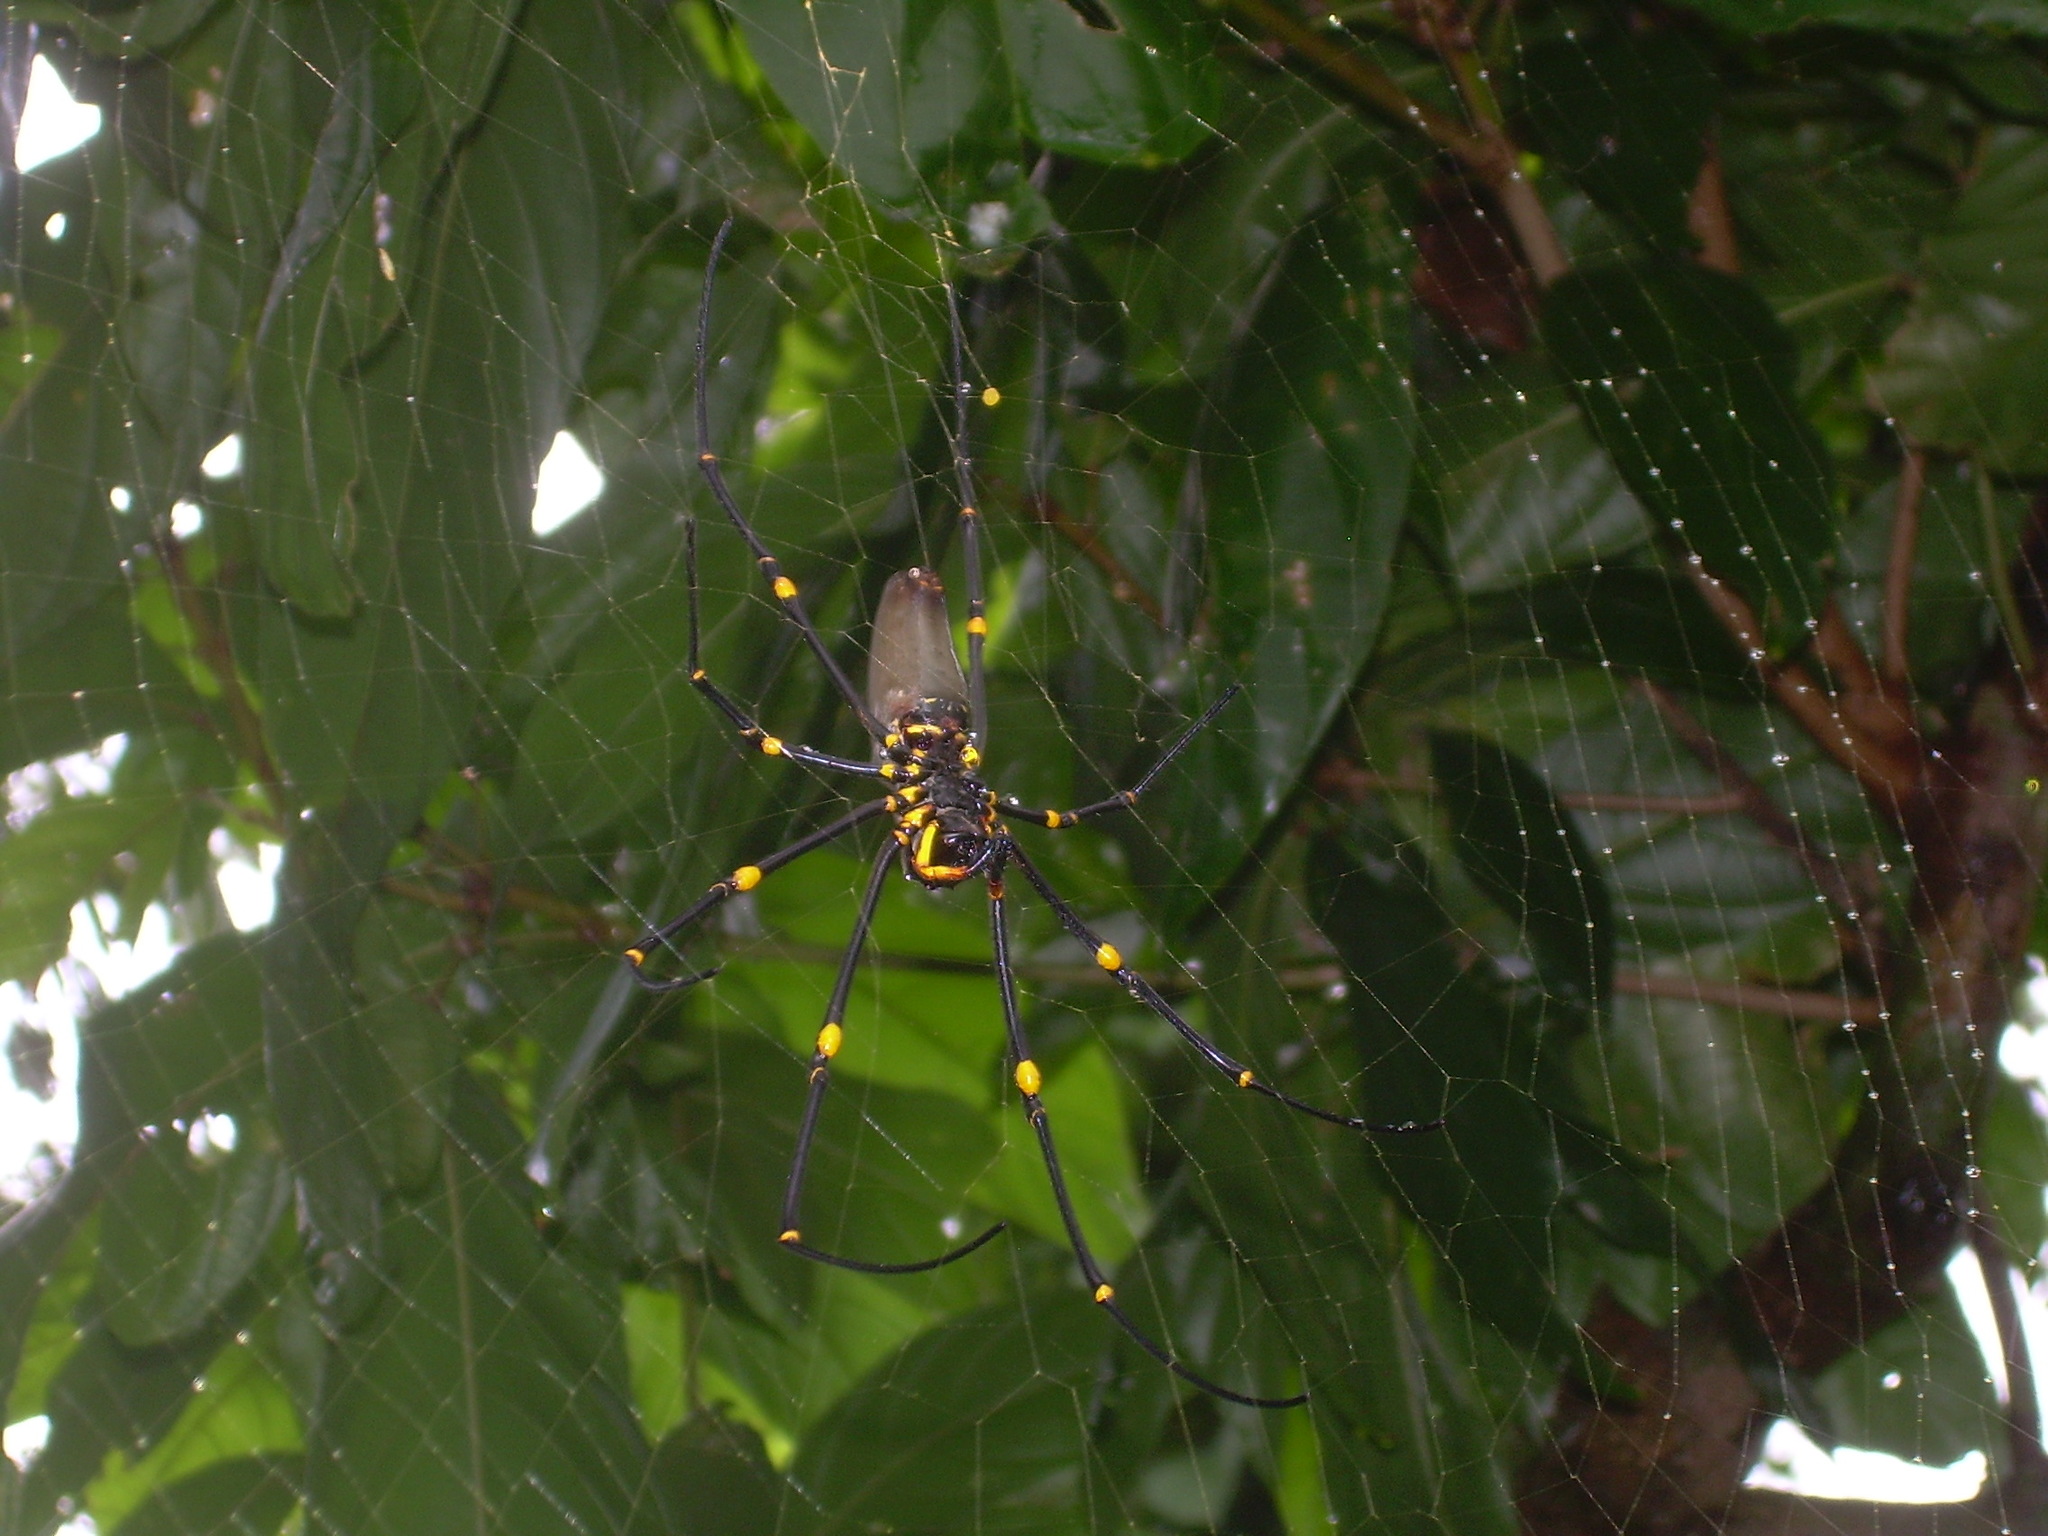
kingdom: Animalia
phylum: Arthropoda
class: Arachnida
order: Araneae
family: Araneidae
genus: Nephila
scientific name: Nephila pilipes
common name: Giant golden orb weaver
